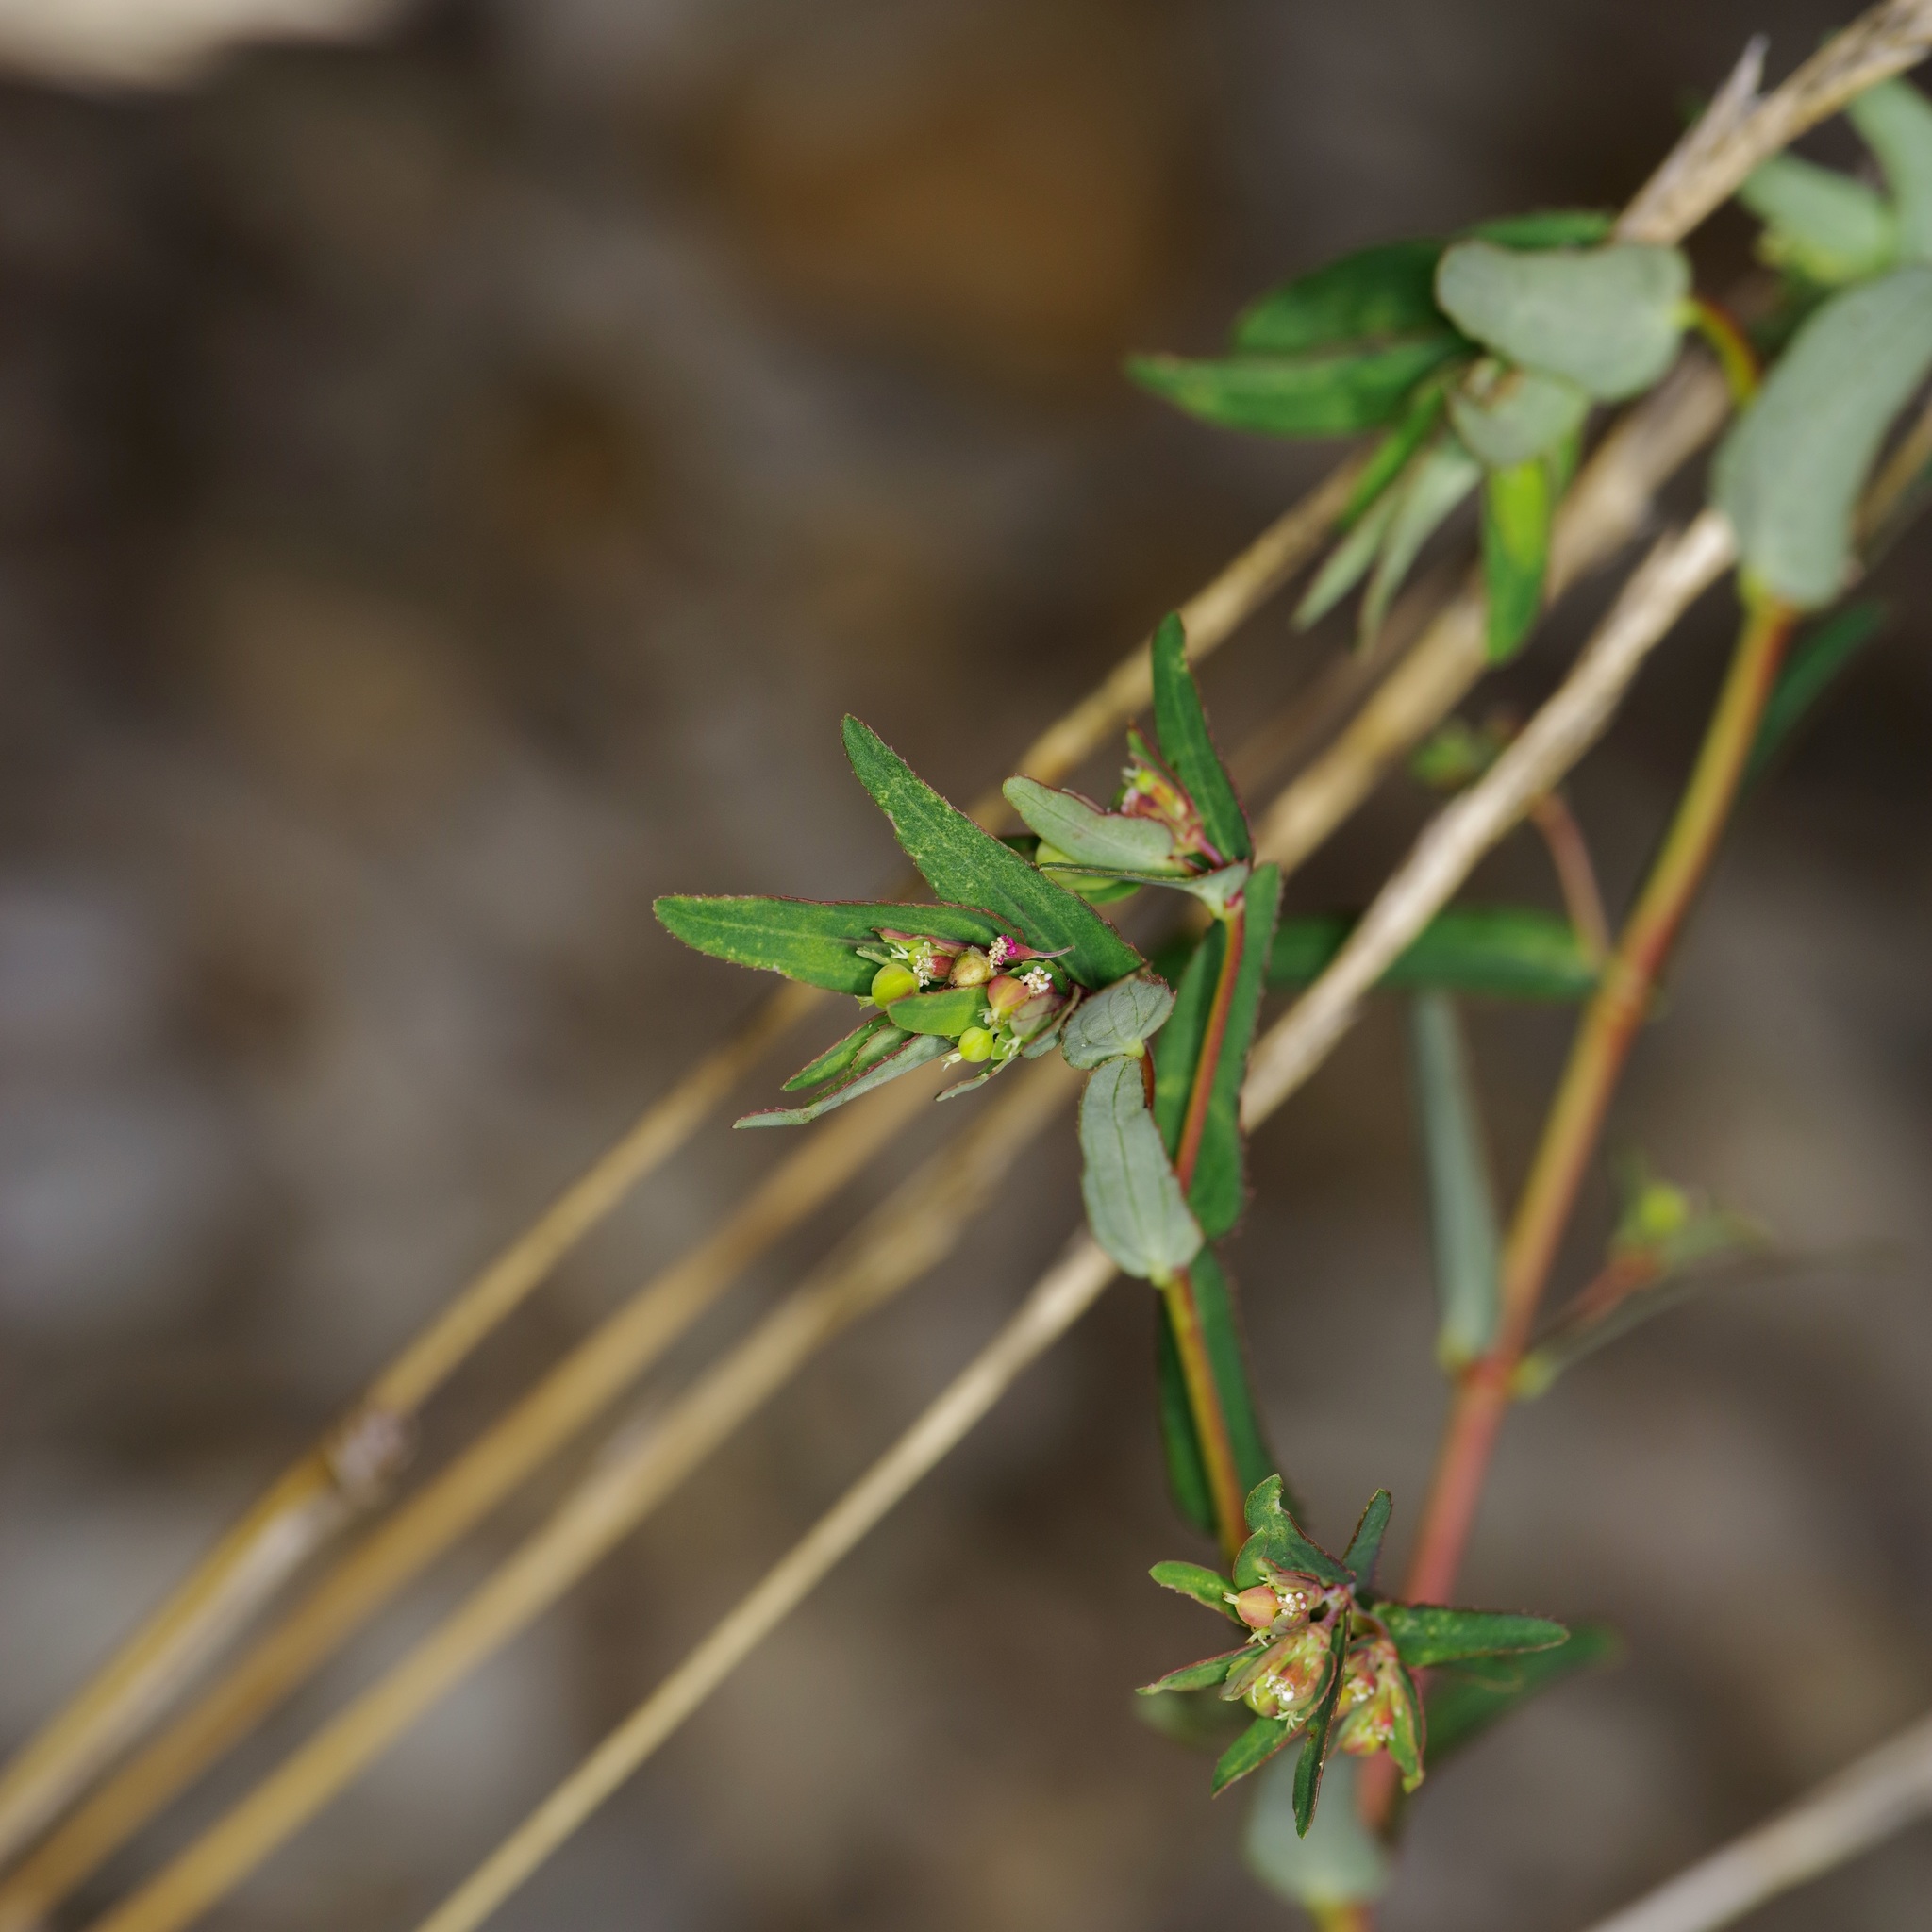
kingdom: Plantae
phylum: Tracheophyta
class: Magnoliopsida
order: Malpighiales
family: Euphorbiaceae
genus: Euphorbia
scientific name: Euphorbia nutans
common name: Eyebane
